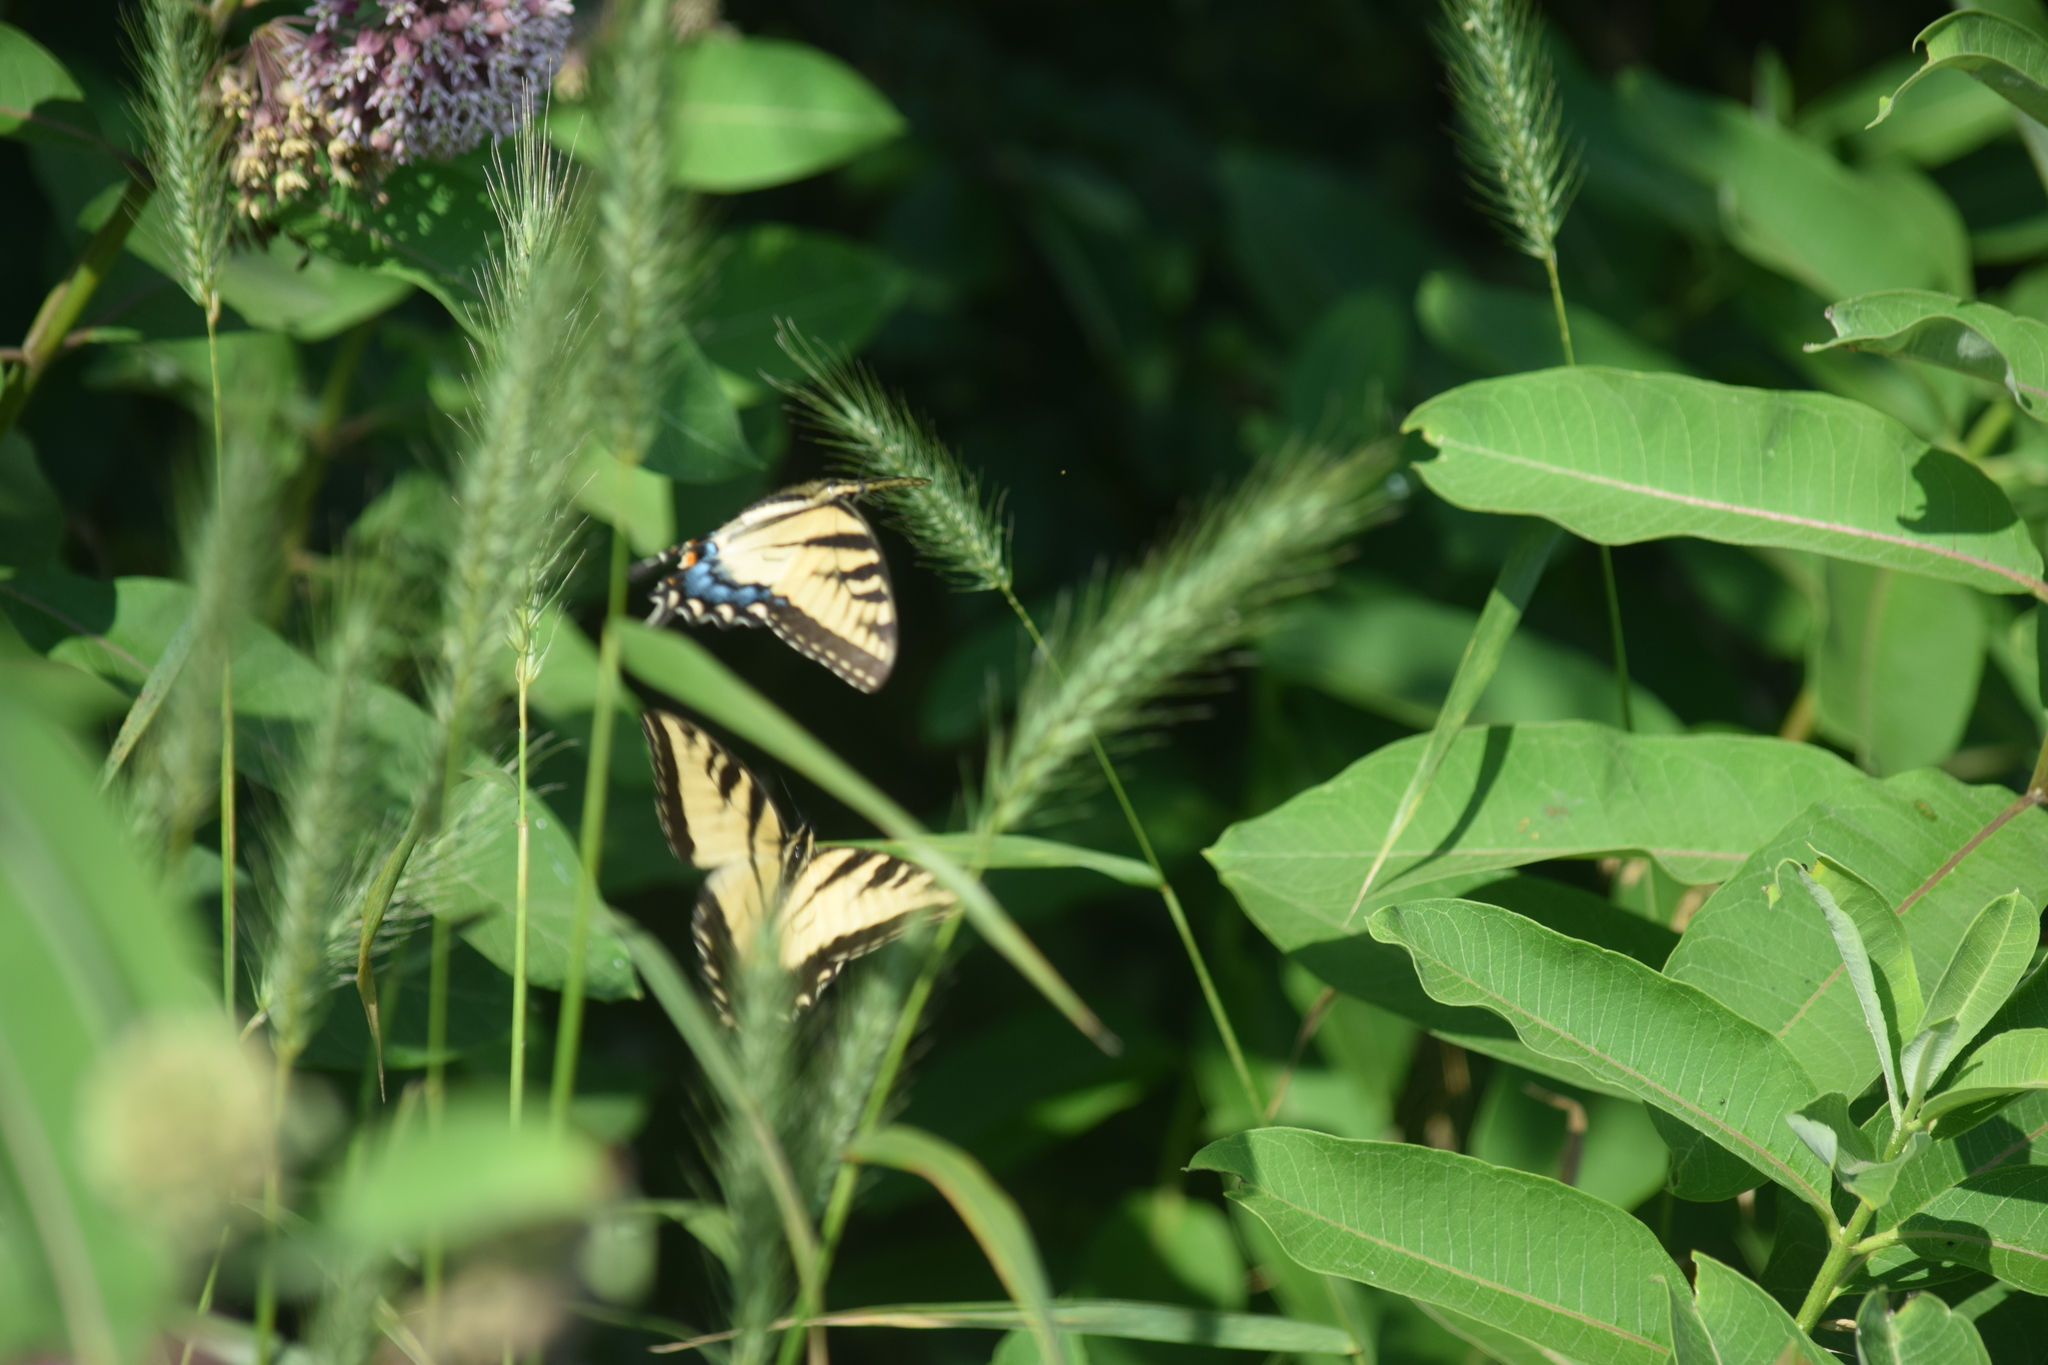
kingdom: Animalia
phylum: Arthropoda
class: Insecta
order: Lepidoptera
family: Papilionidae
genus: Papilio
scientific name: Papilio glaucus
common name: Tiger swallowtail
